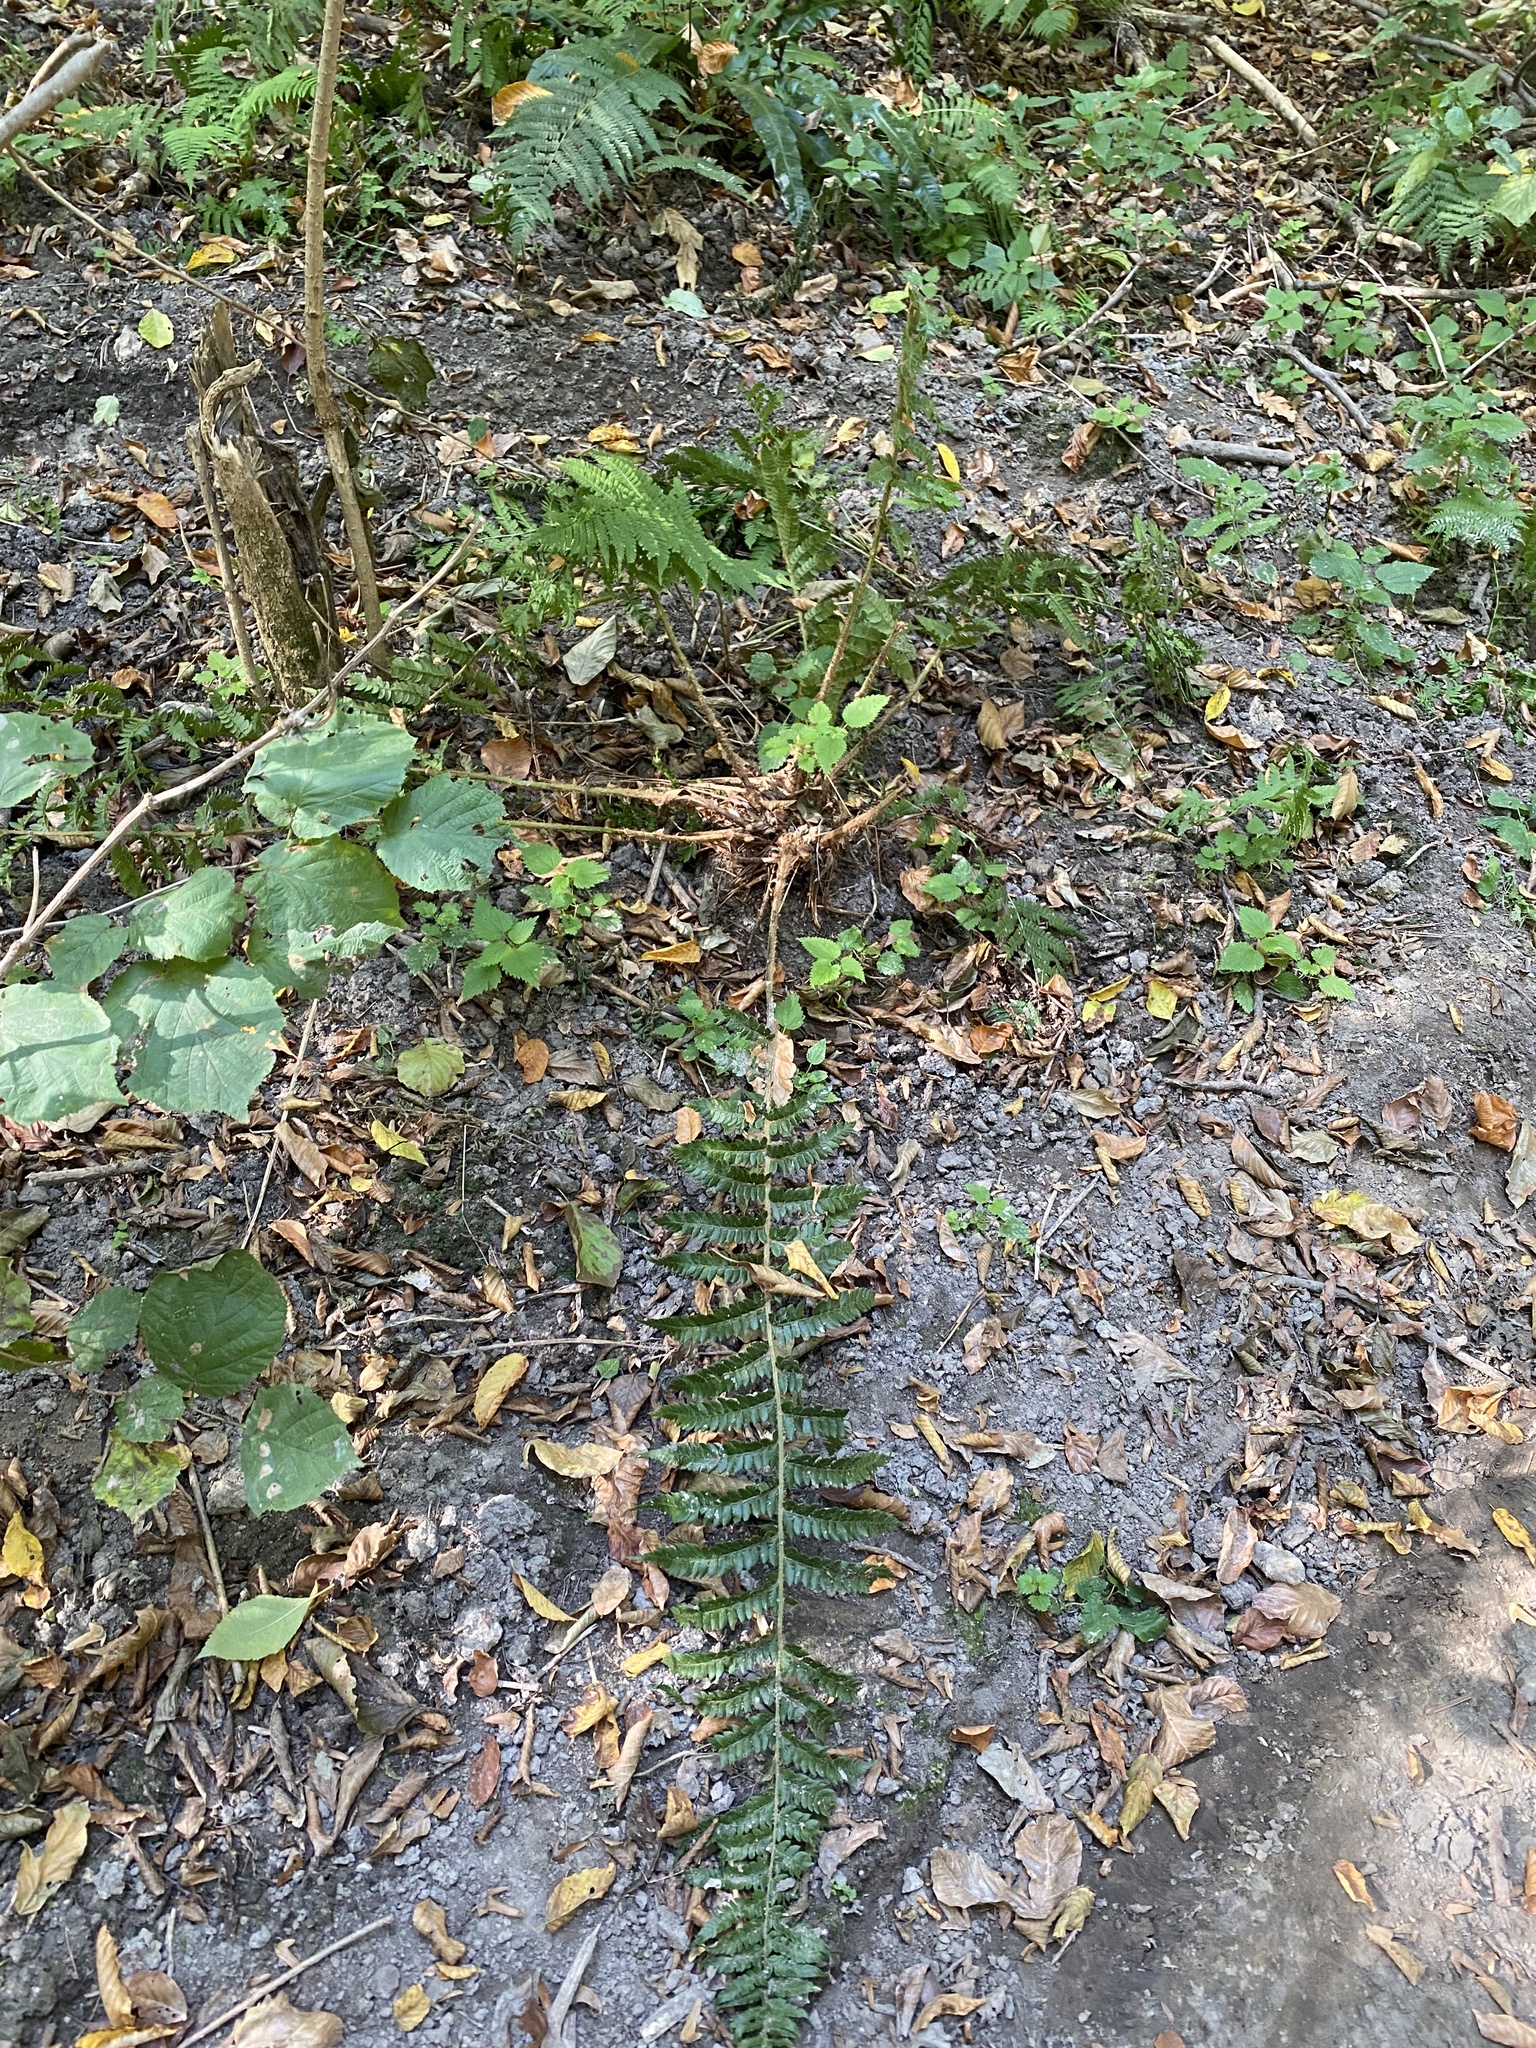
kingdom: Plantae
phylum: Tracheophyta
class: Polypodiopsida
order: Polypodiales
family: Dryopteridaceae
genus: Polystichum
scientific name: Polystichum braunii
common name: Braun's holly fern
